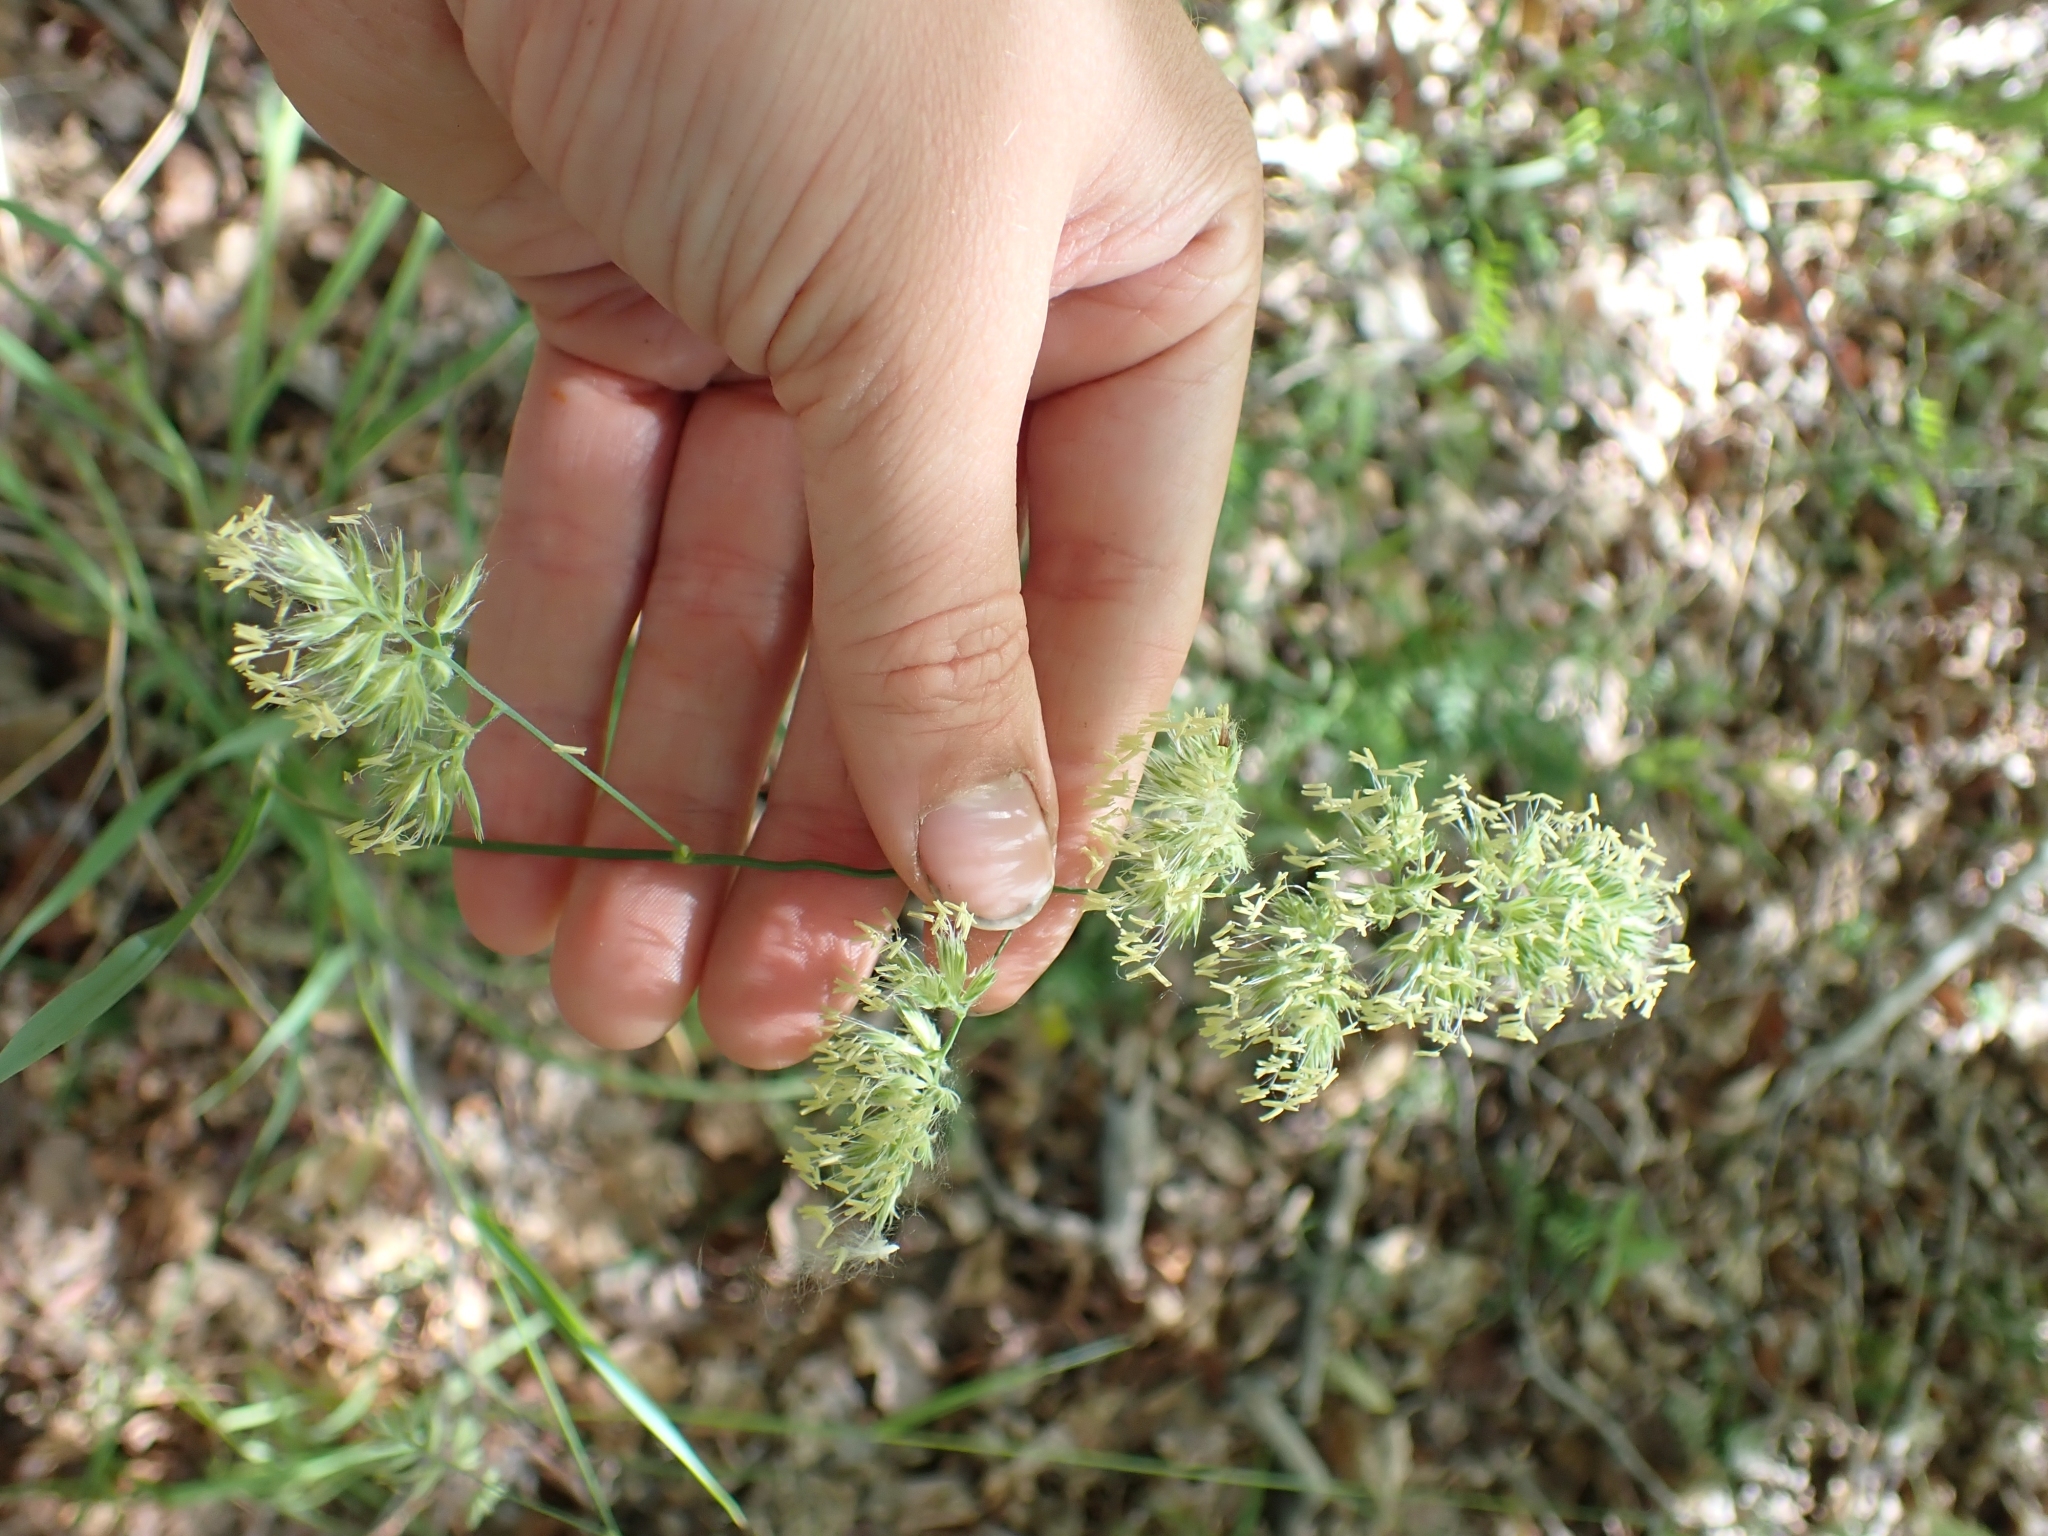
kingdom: Plantae
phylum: Tracheophyta
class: Liliopsida
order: Poales
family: Poaceae
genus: Dactylis
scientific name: Dactylis glomerata
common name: Orchardgrass
